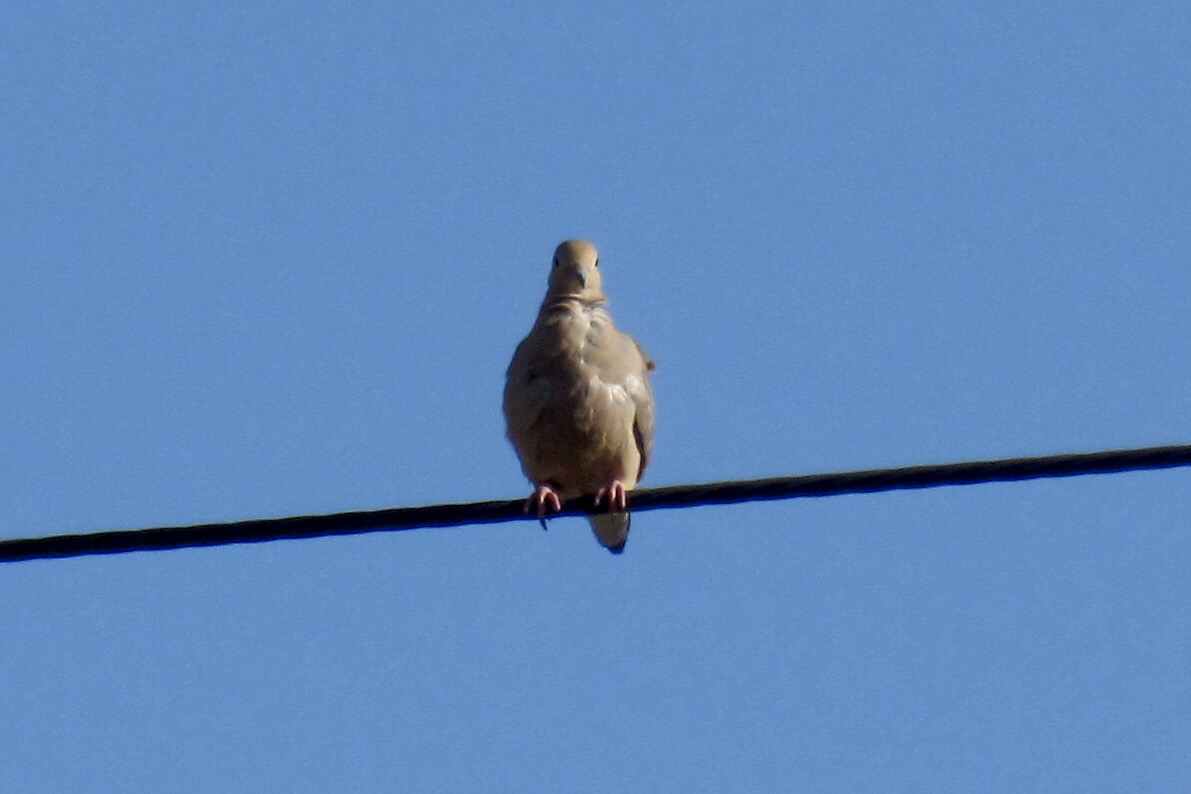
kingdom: Animalia
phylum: Chordata
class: Aves
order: Columbiformes
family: Columbidae
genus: Zenaida
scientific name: Zenaida macroura
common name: Mourning dove
